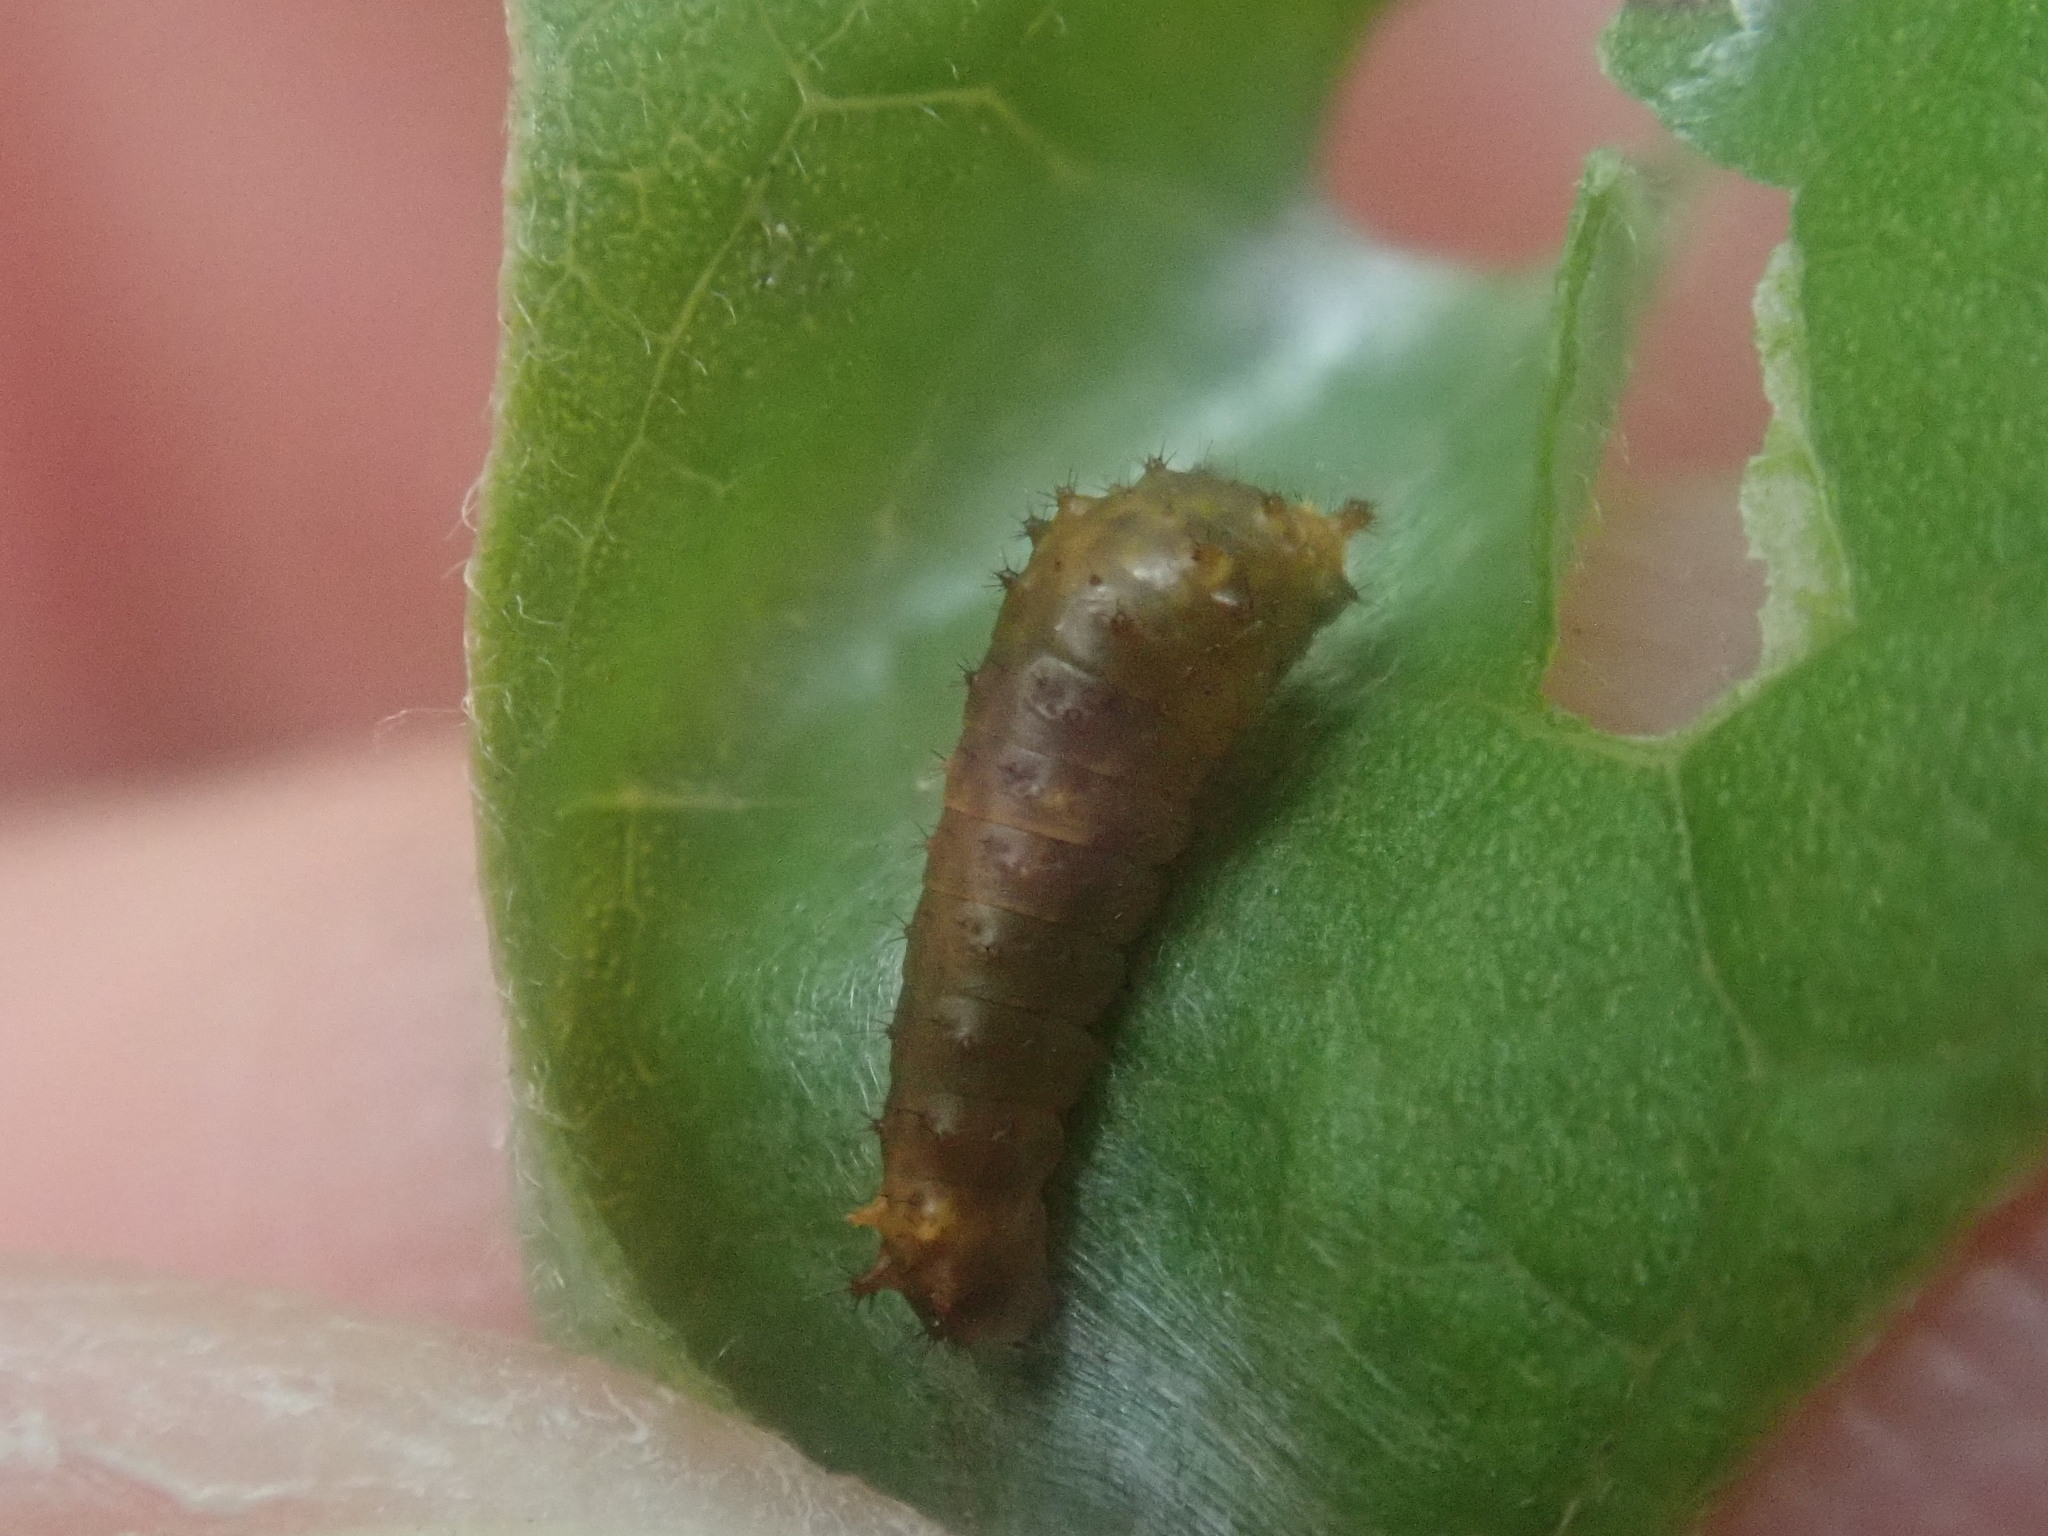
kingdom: Animalia
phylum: Arthropoda
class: Insecta
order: Lepidoptera
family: Papilionidae
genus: Papilio
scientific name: Papilio troilus
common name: Spicebush swallowtail
